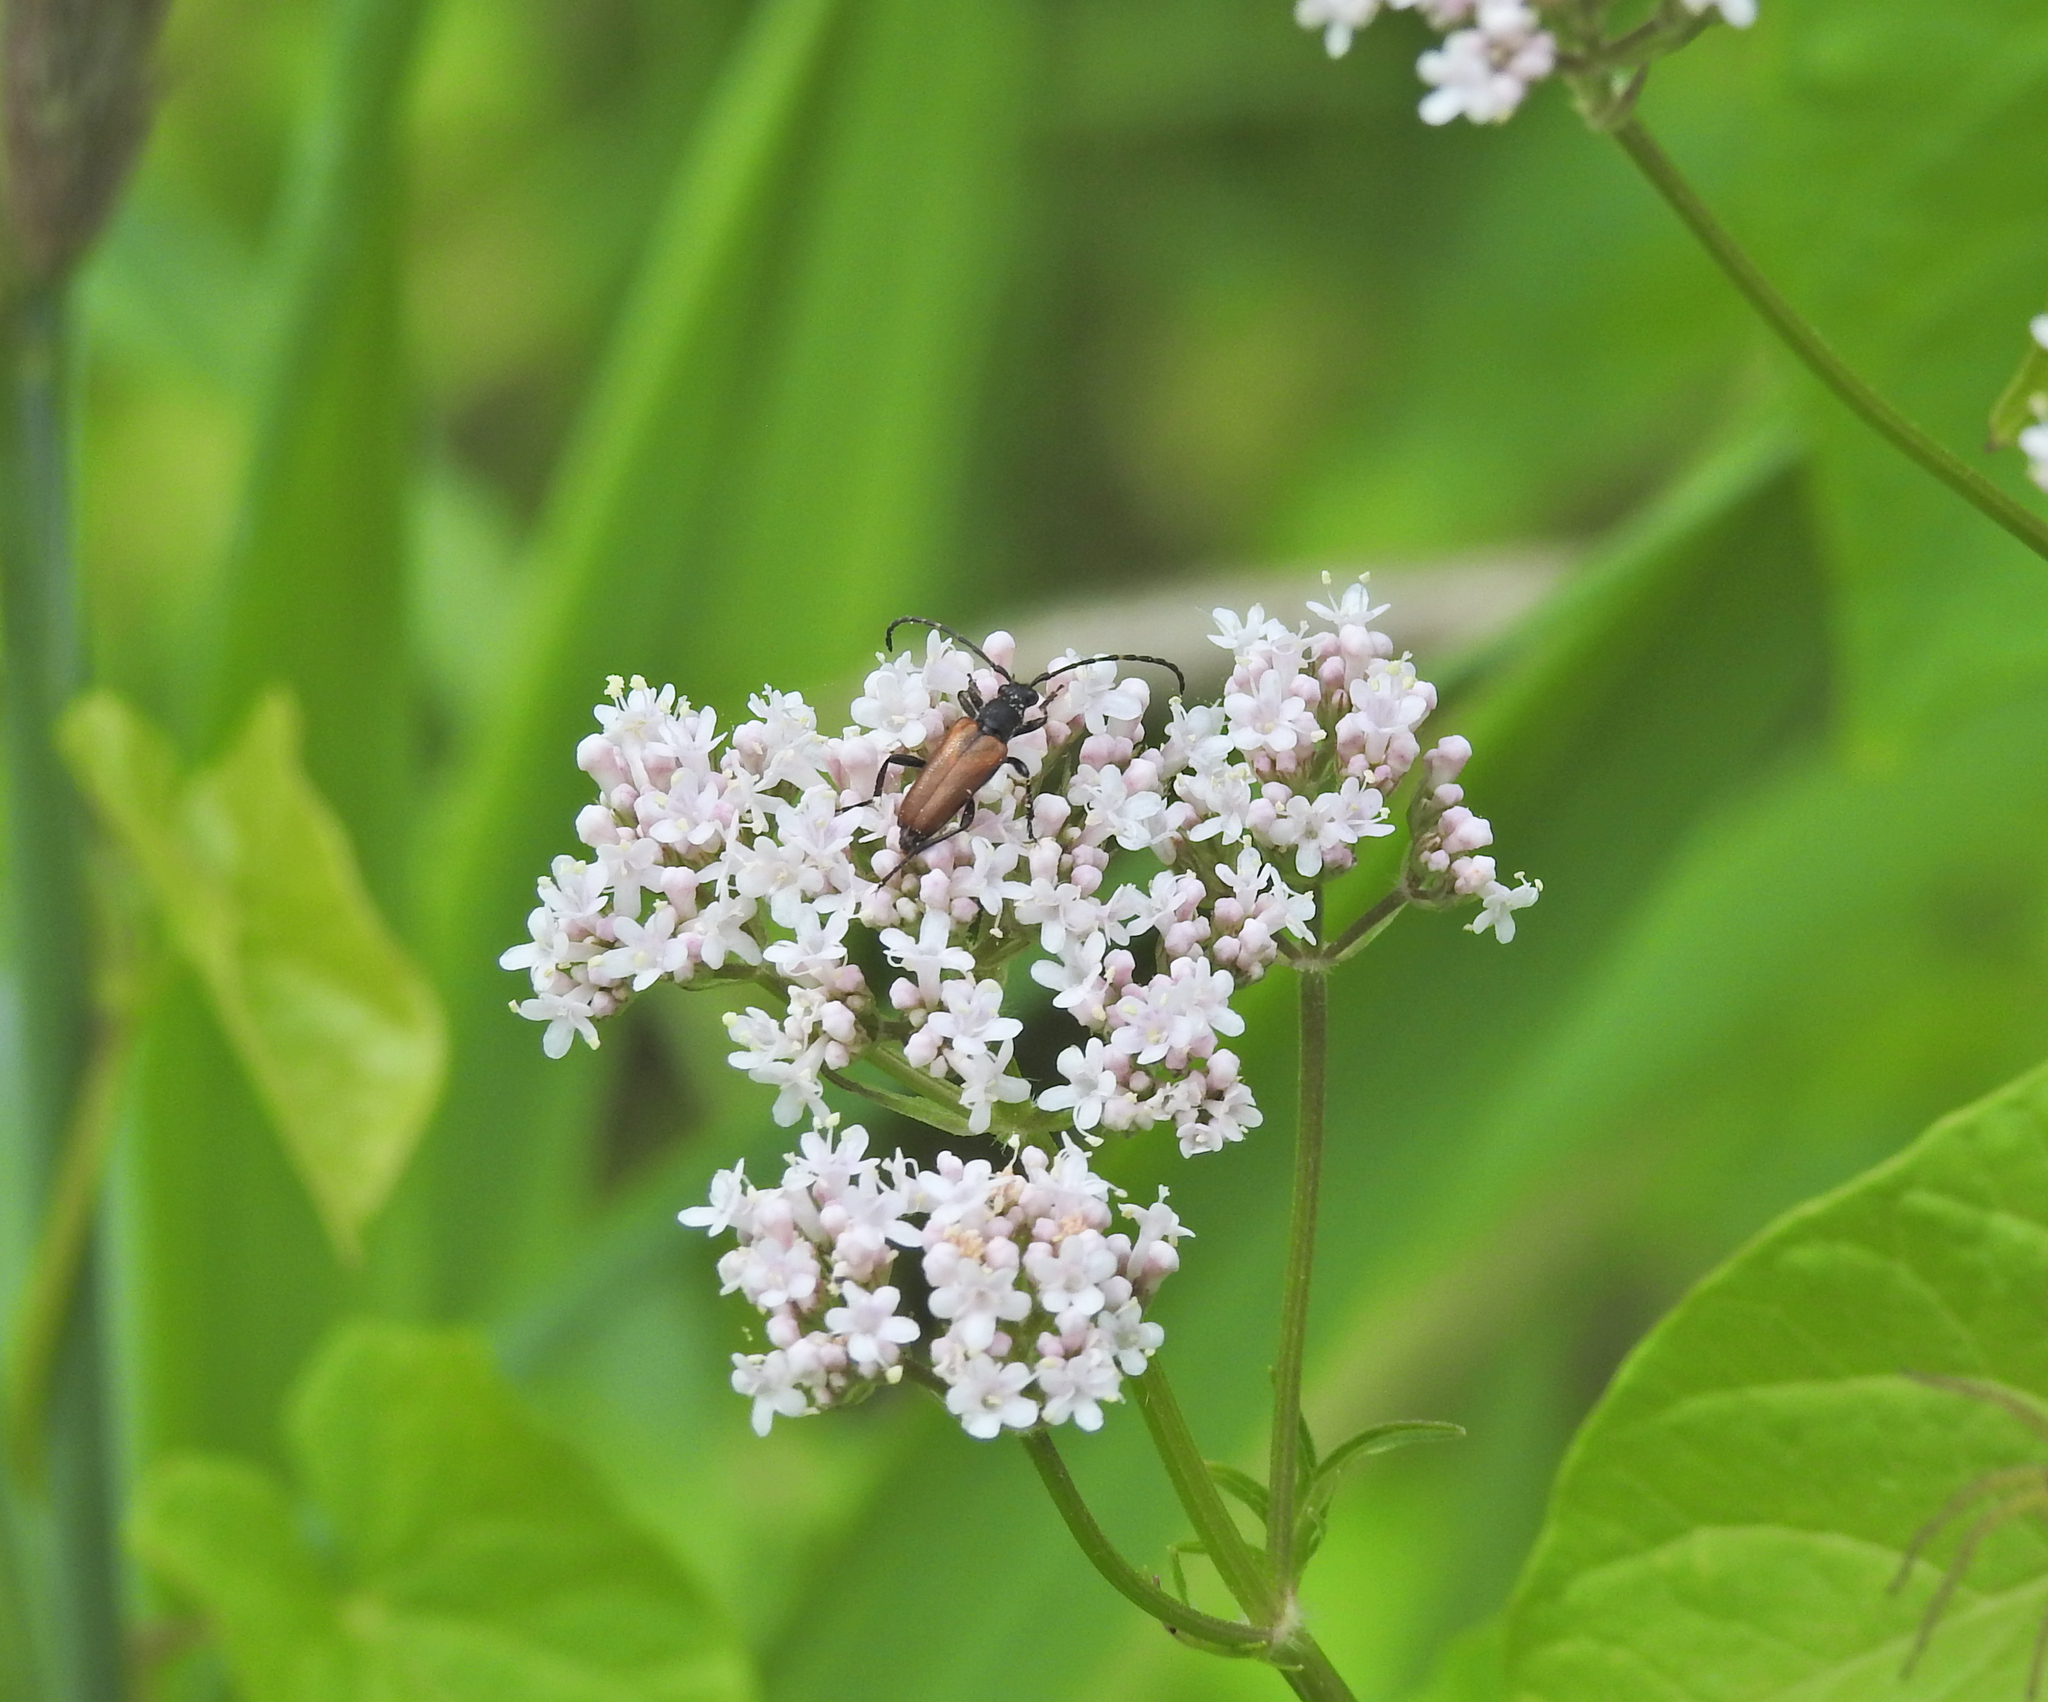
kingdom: Animalia
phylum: Arthropoda
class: Insecta
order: Coleoptera
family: Cerambycidae
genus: Paracorymbia
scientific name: Paracorymbia maculicornis
